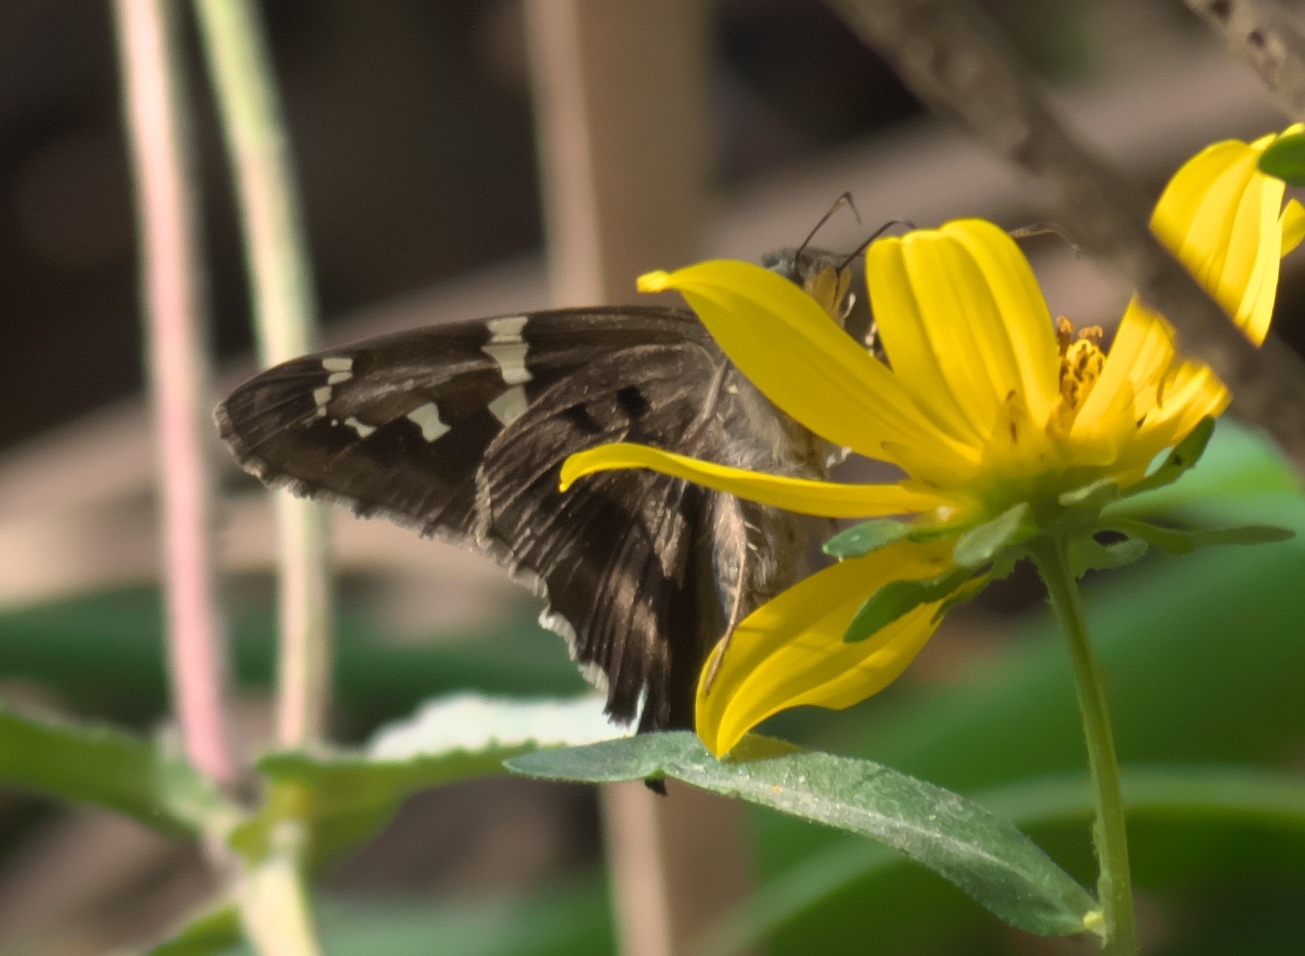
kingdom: Animalia
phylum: Arthropoda
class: Insecta
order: Lepidoptera
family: Hesperiidae
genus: Urbanus
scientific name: Urbanus proteus
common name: Long-tailed skipper
